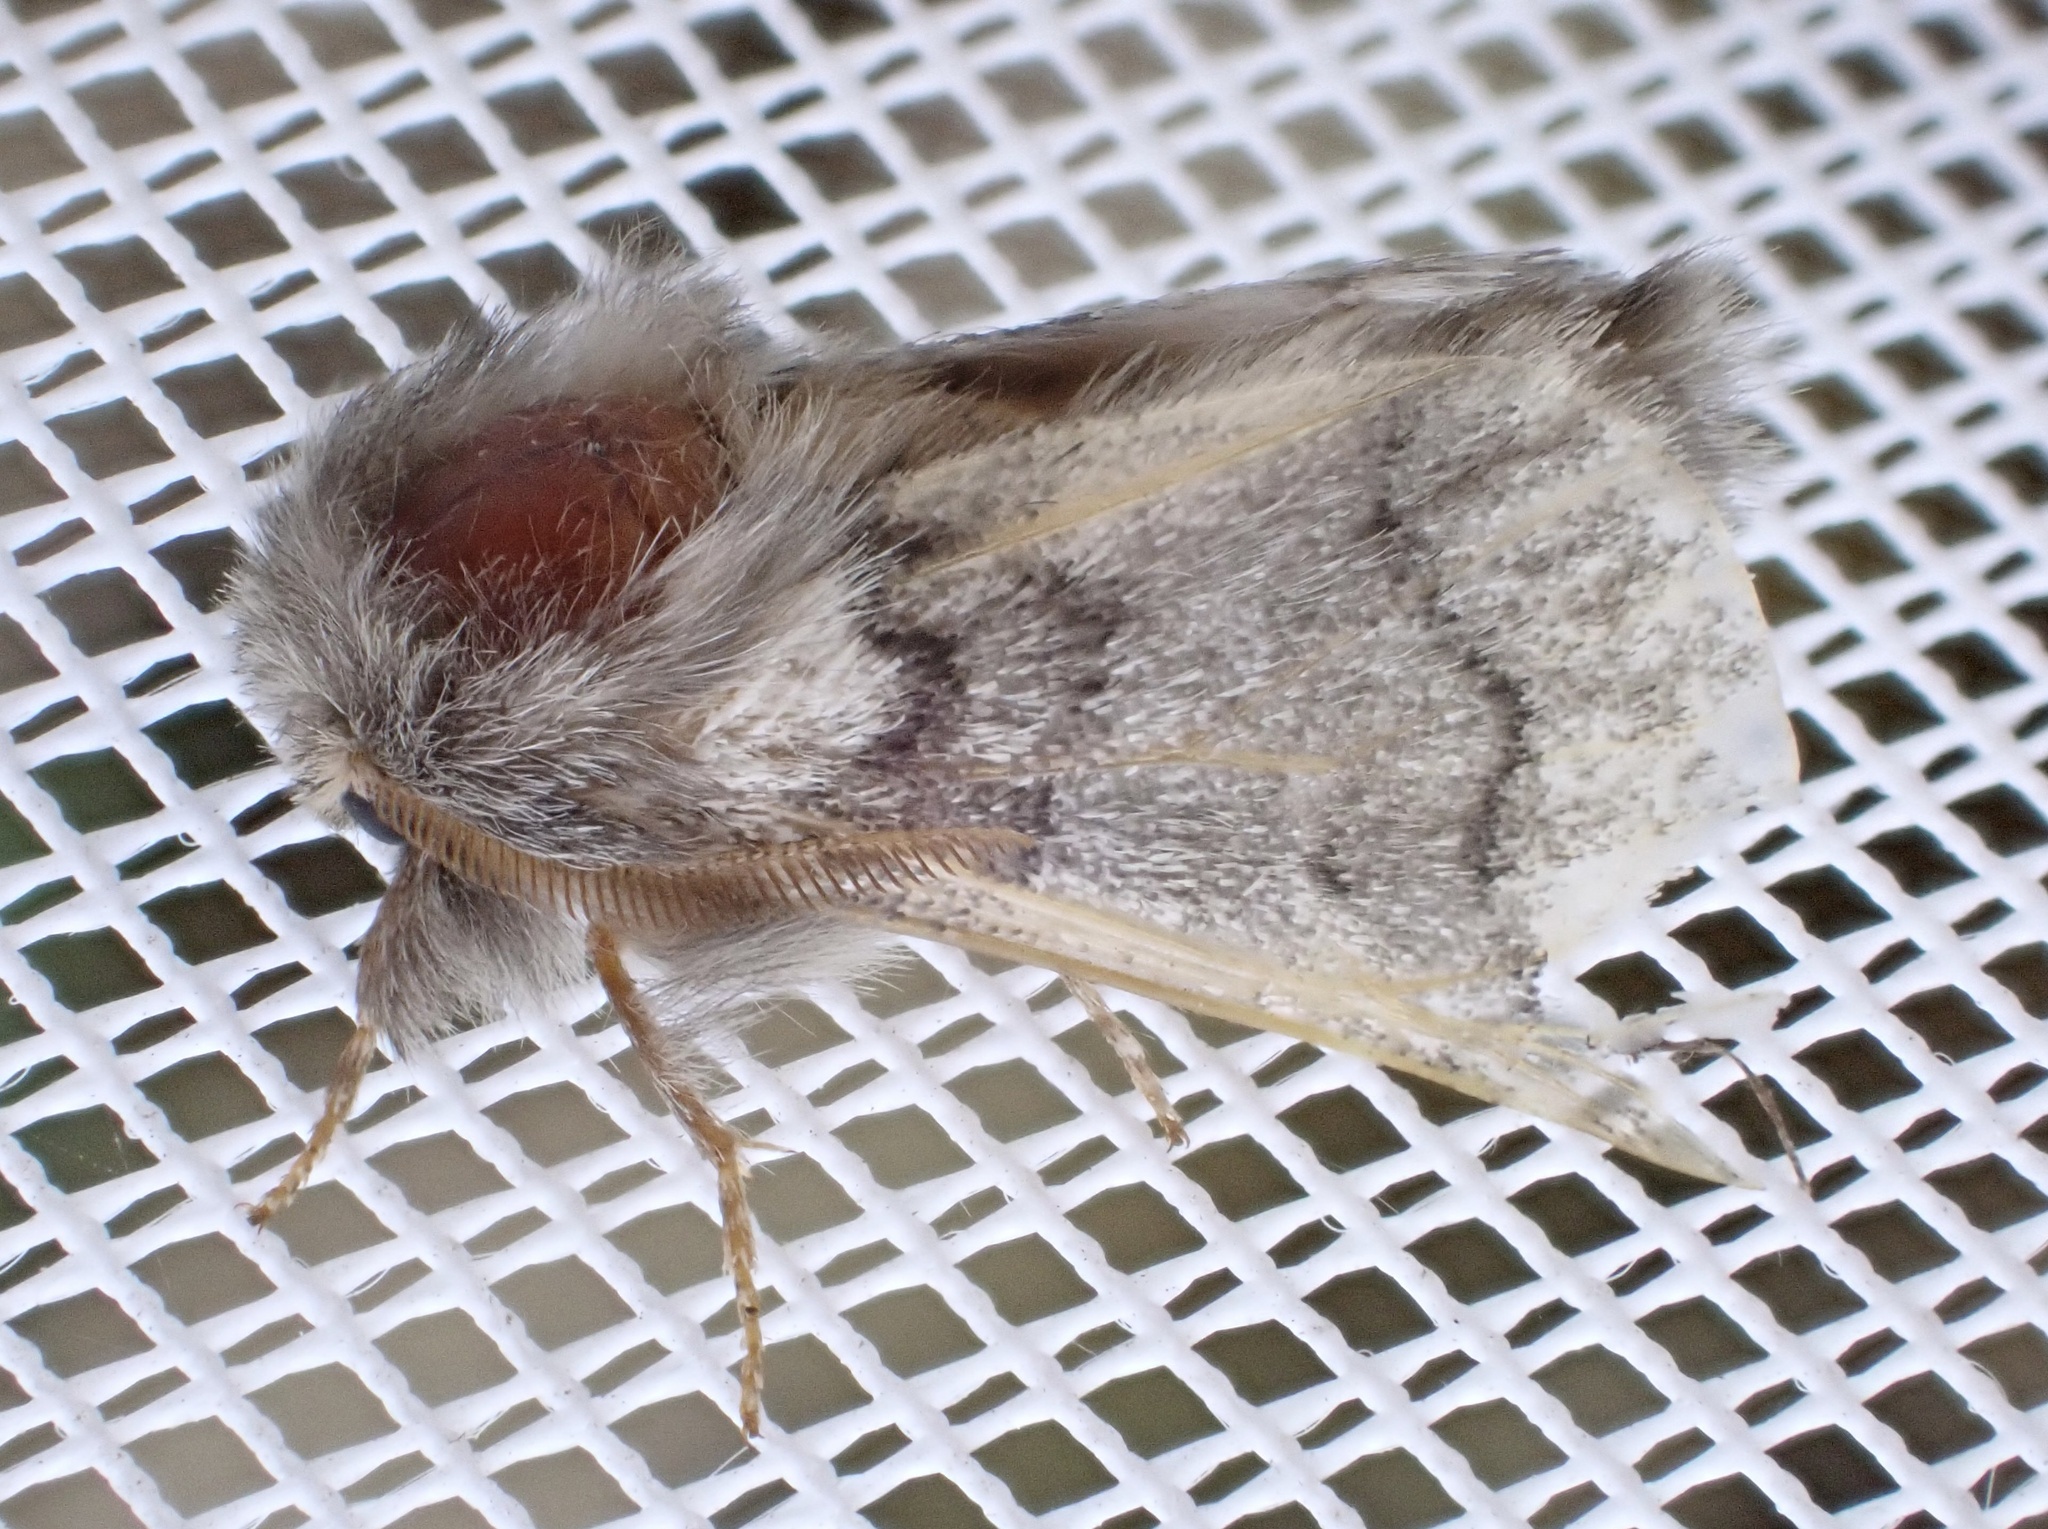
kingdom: Animalia
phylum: Arthropoda
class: Insecta
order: Lepidoptera
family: Notodontidae
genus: Thaumetopoea
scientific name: Thaumetopoea processionea
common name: Oak processionea
